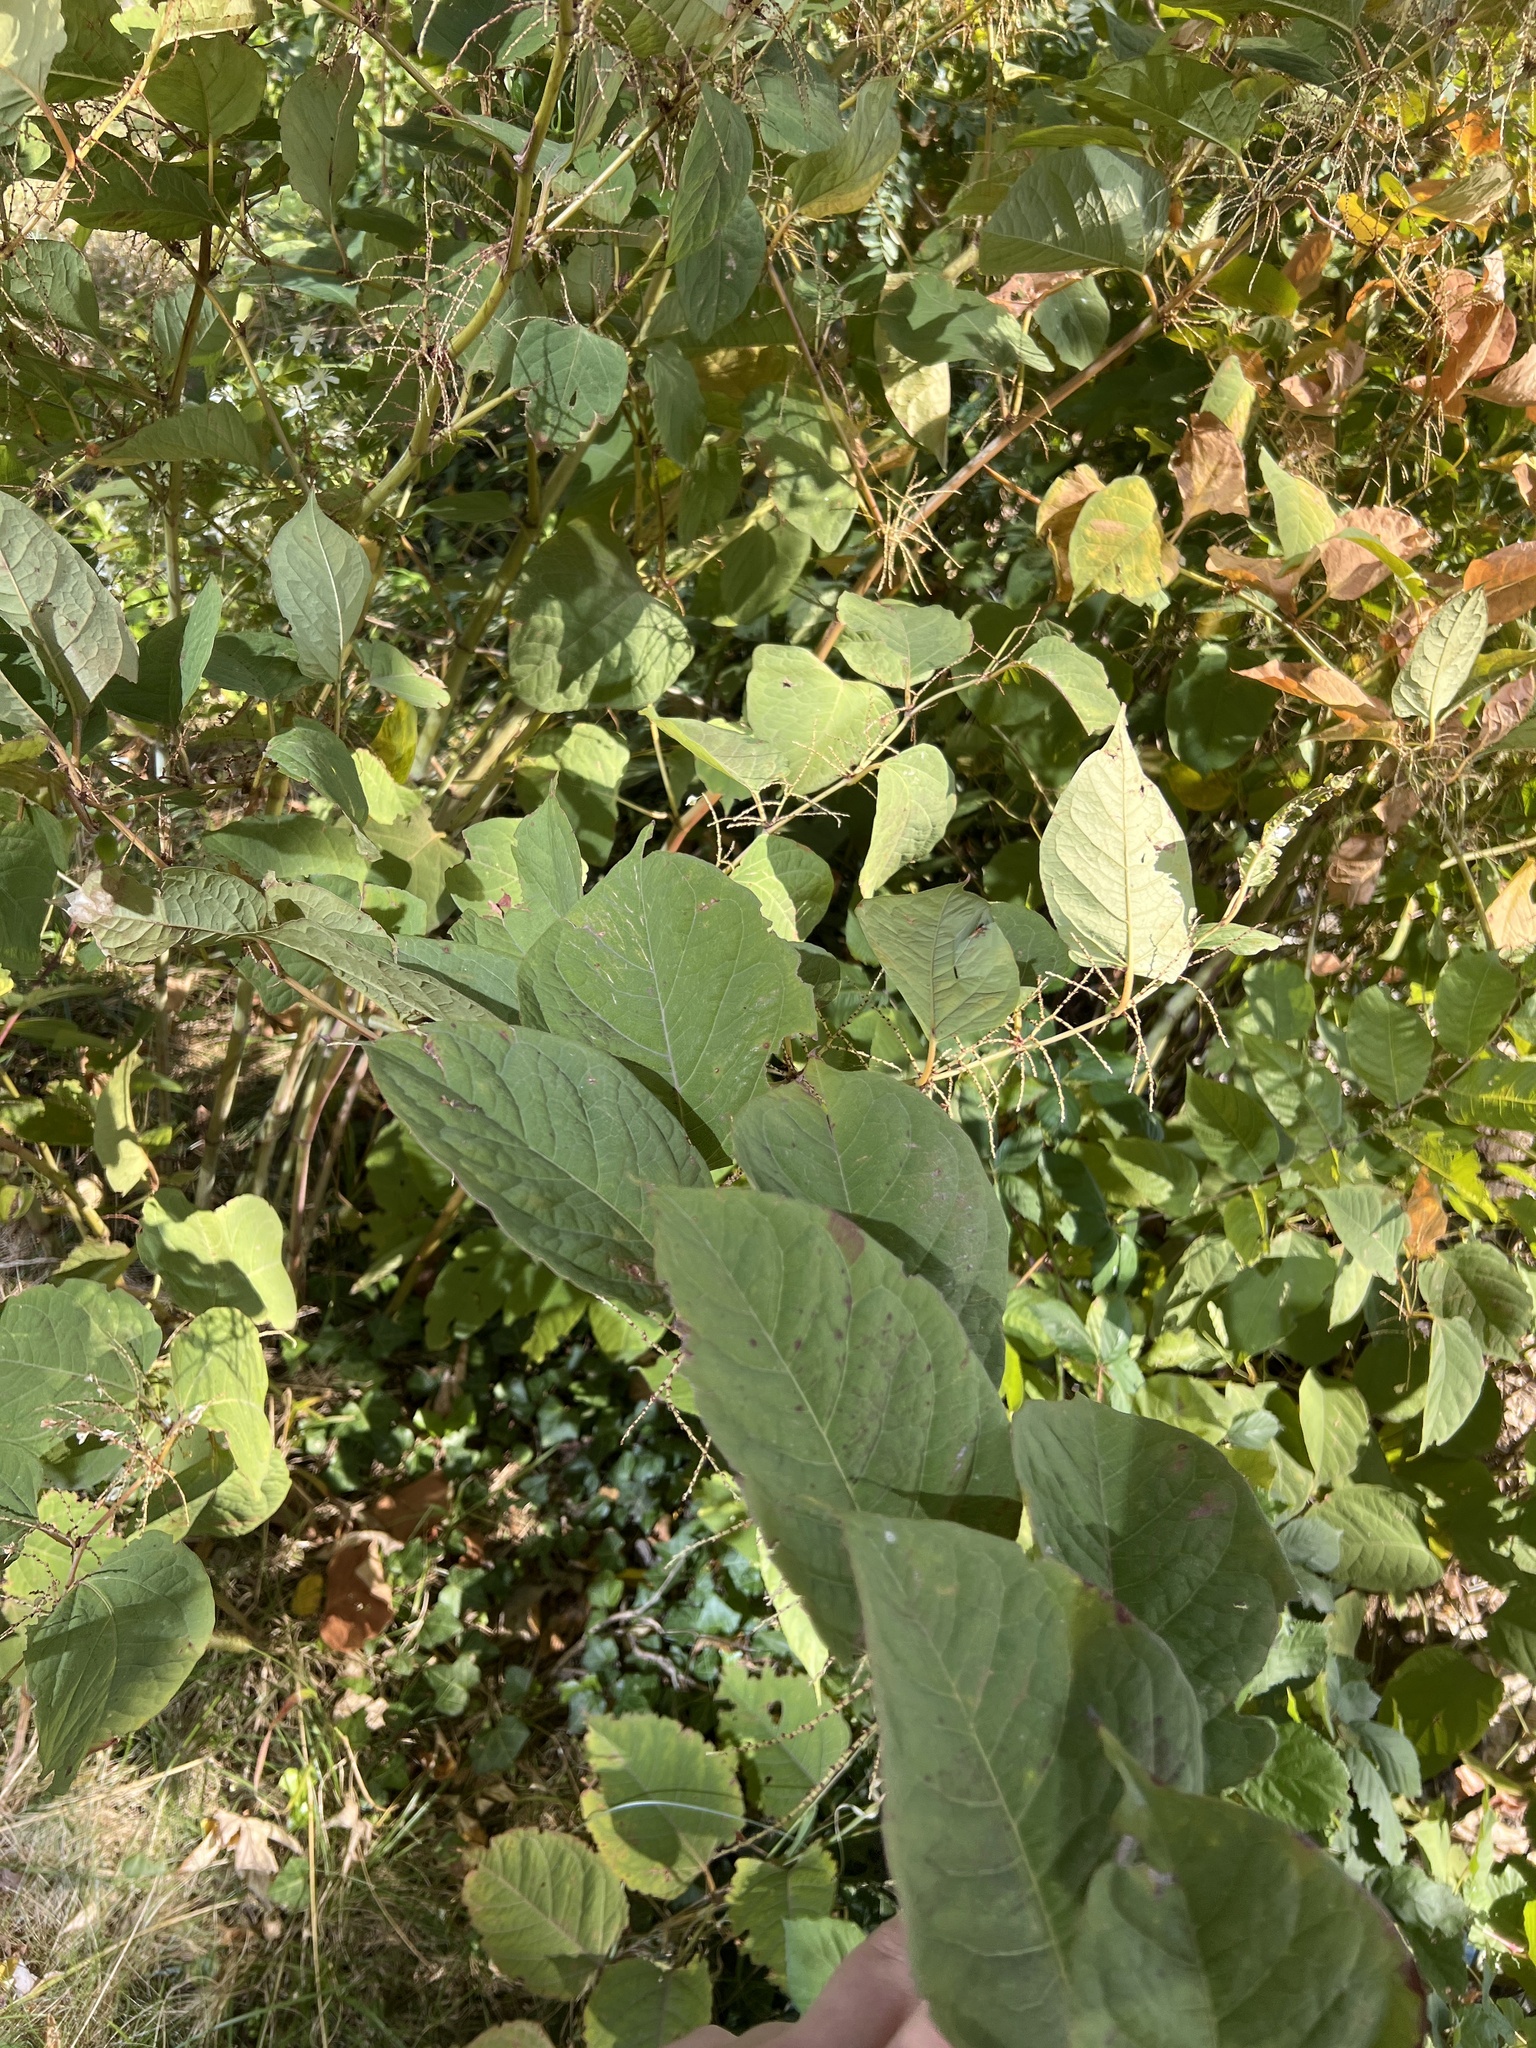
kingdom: Plantae
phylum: Tracheophyta
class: Magnoliopsida
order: Caryophyllales
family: Polygonaceae
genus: Reynoutria
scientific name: Reynoutria japonica
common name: Japanese knotweed
